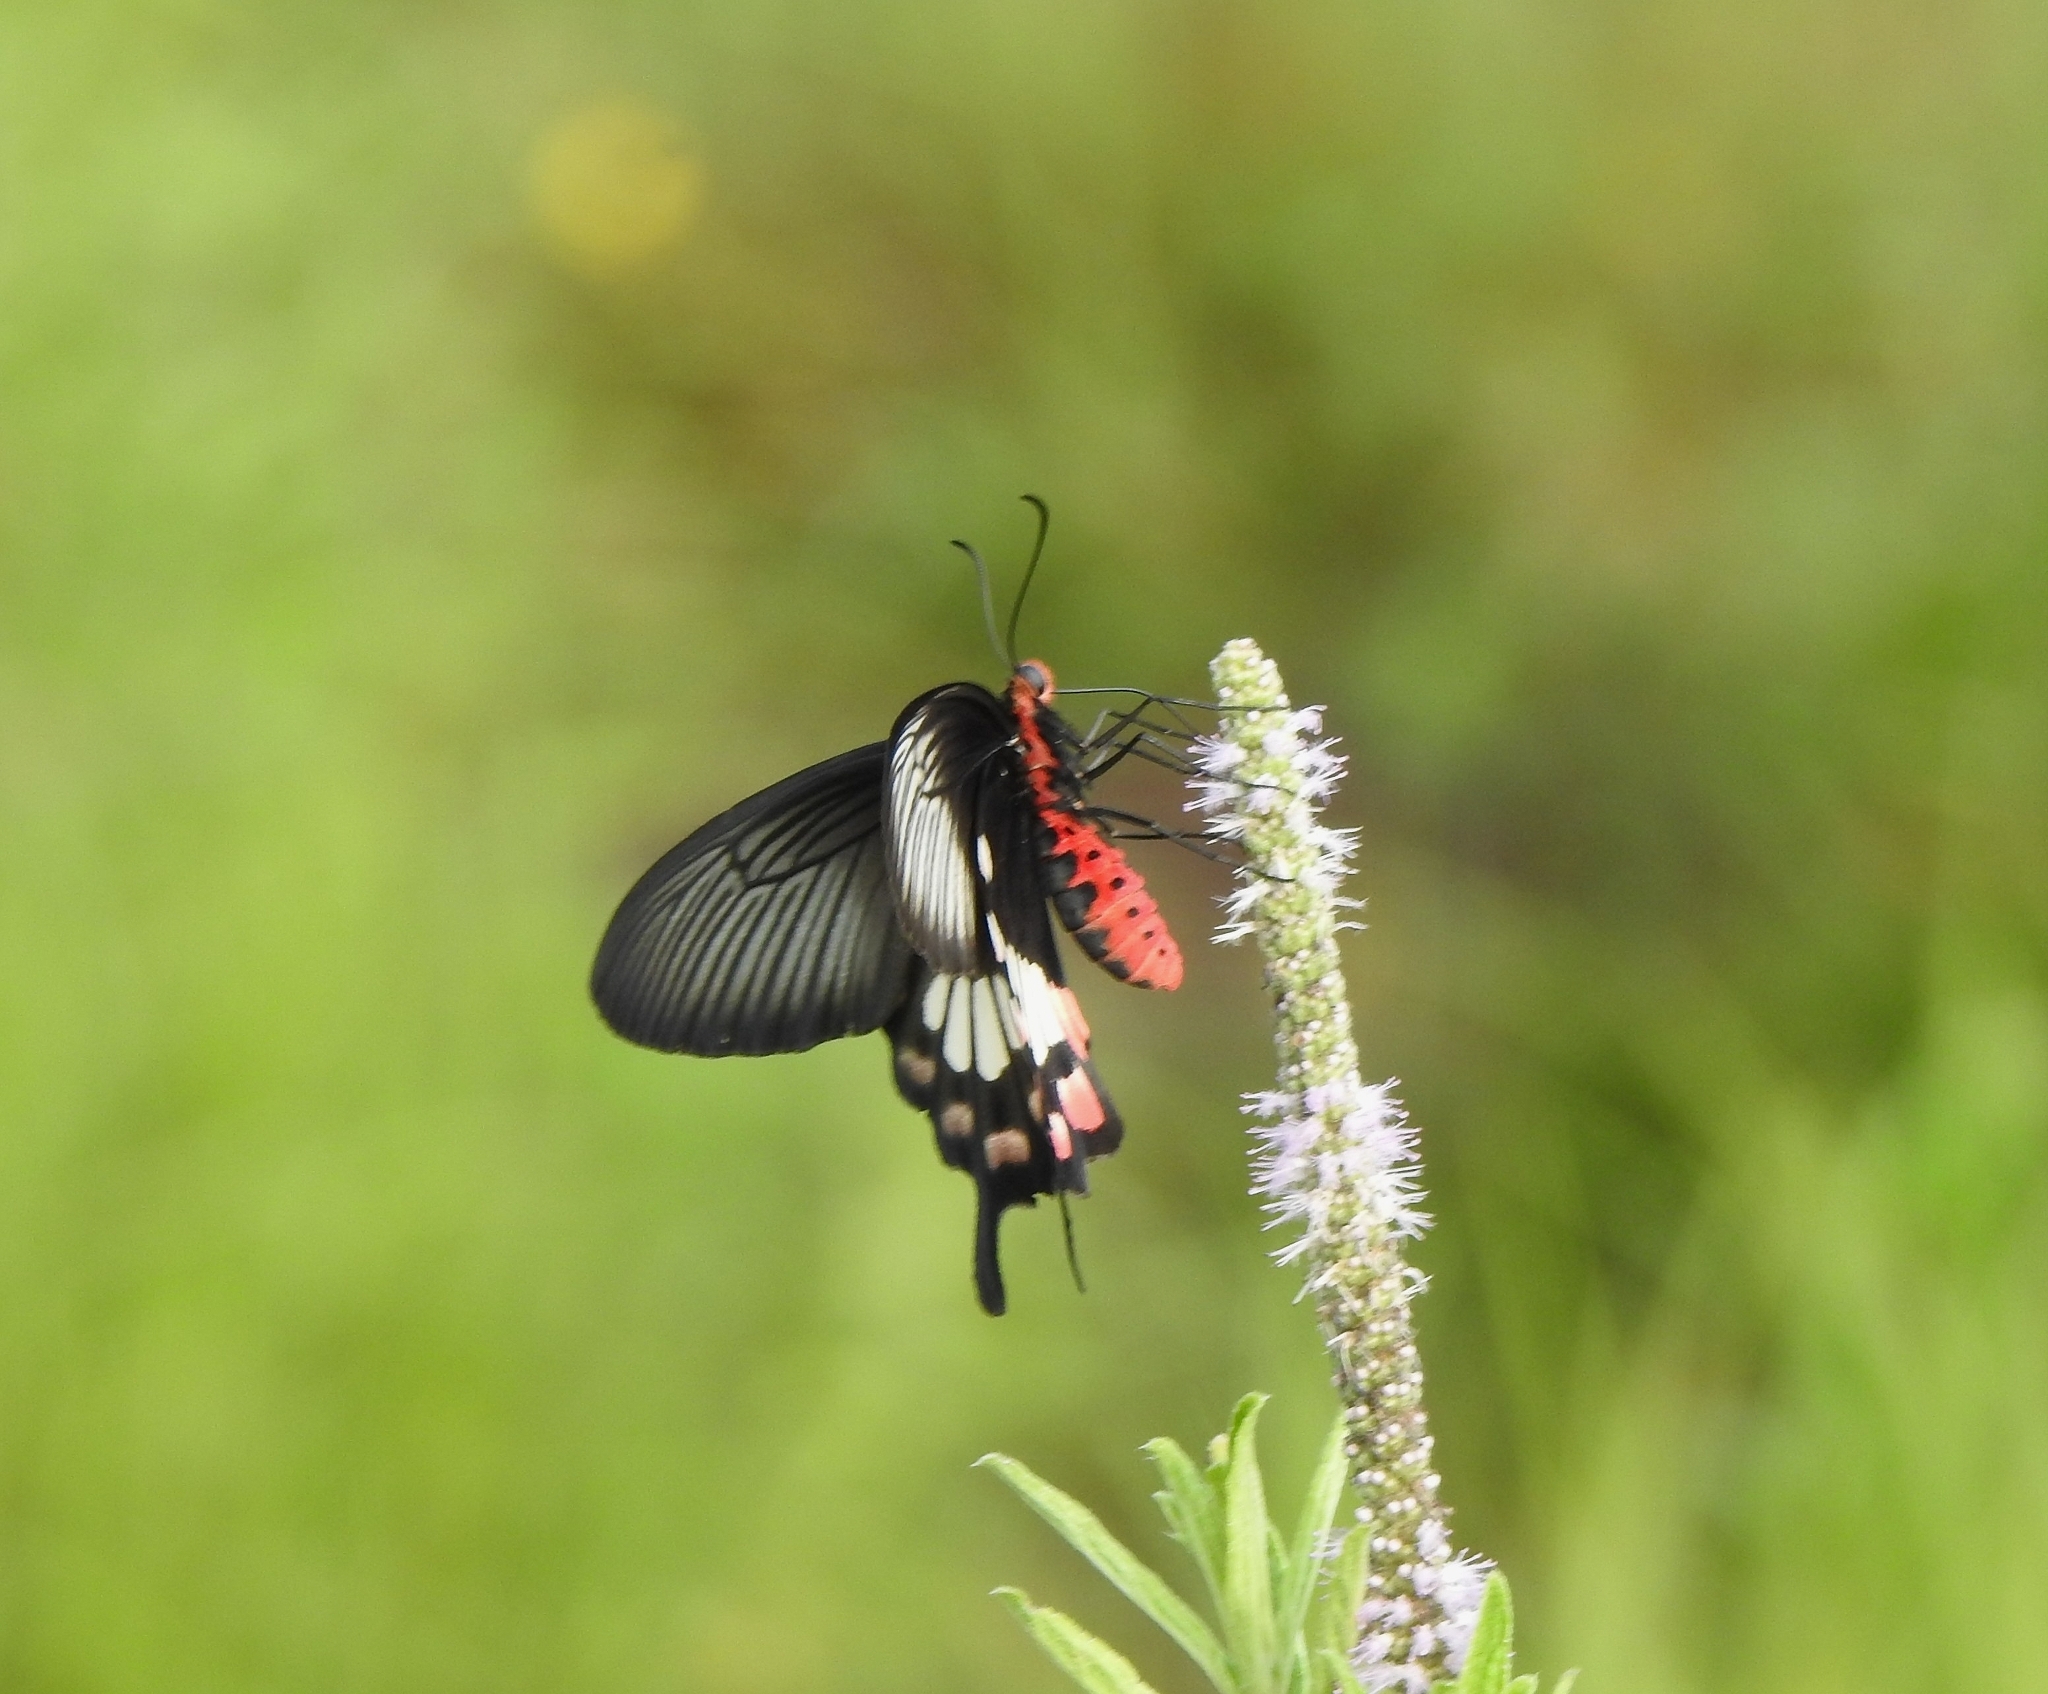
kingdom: Animalia
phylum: Arthropoda
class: Insecta
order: Lepidoptera
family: Papilionidae
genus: Pachliopta
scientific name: Pachliopta aristolochiae
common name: Common rose
